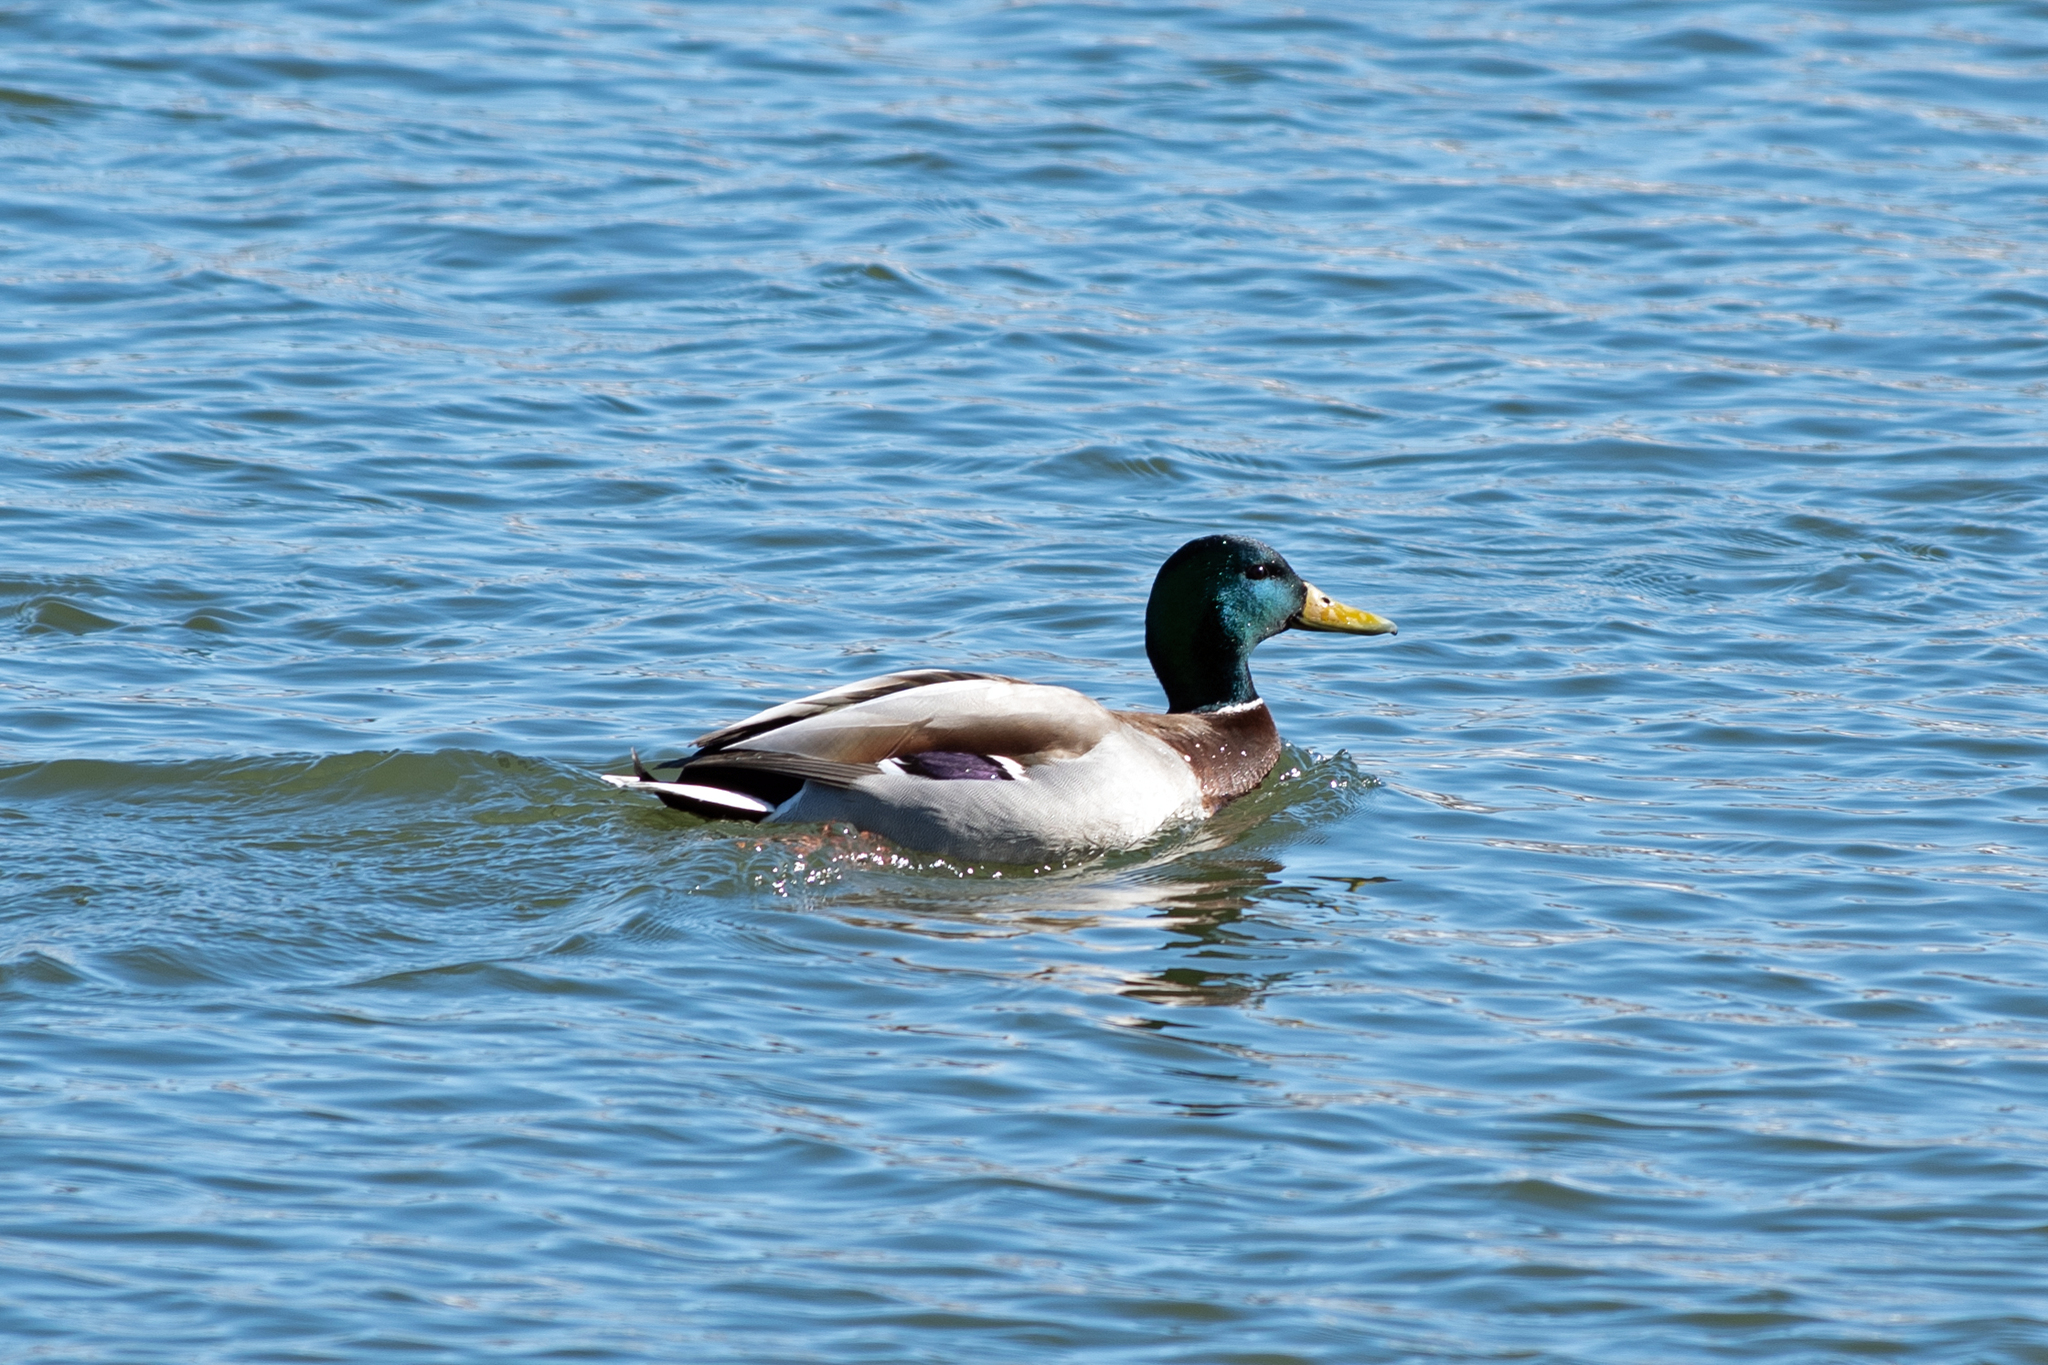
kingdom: Animalia
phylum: Chordata
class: Aves
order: Anseriformes
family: Anatidae
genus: Anas
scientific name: Anas platyrhynchos
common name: Mallard
